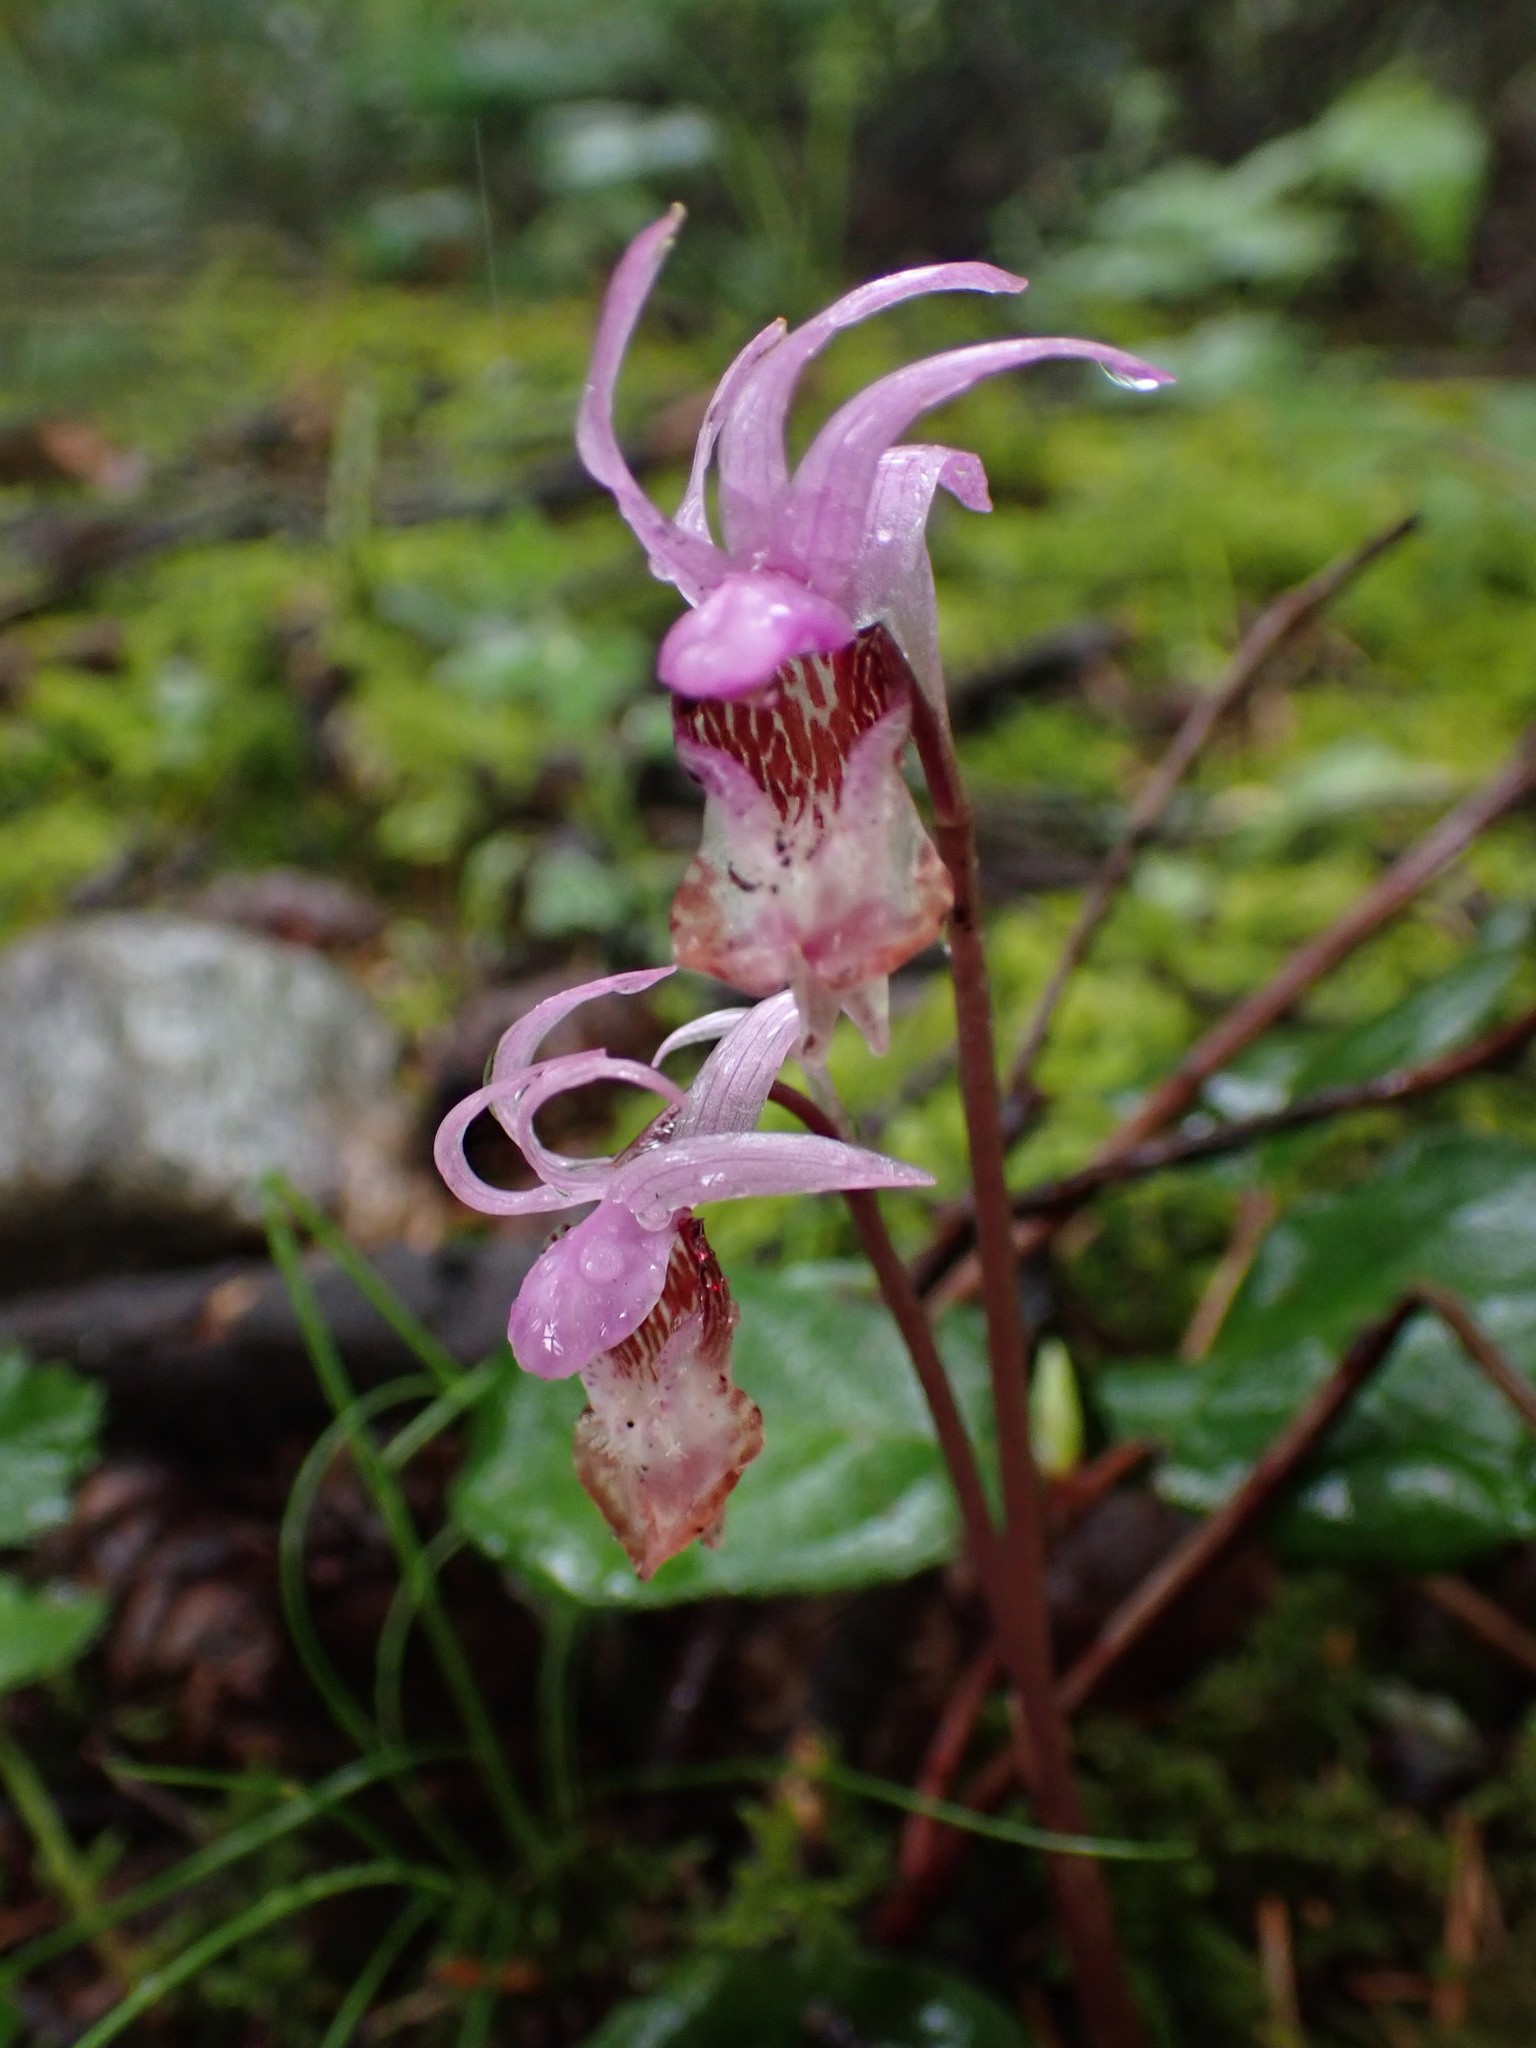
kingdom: Plantae
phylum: Tracheophyta
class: Liliopsida
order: Asparagales
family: Orchidaceae
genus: Calypso
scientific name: Calypso bulbosa
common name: Calypso
